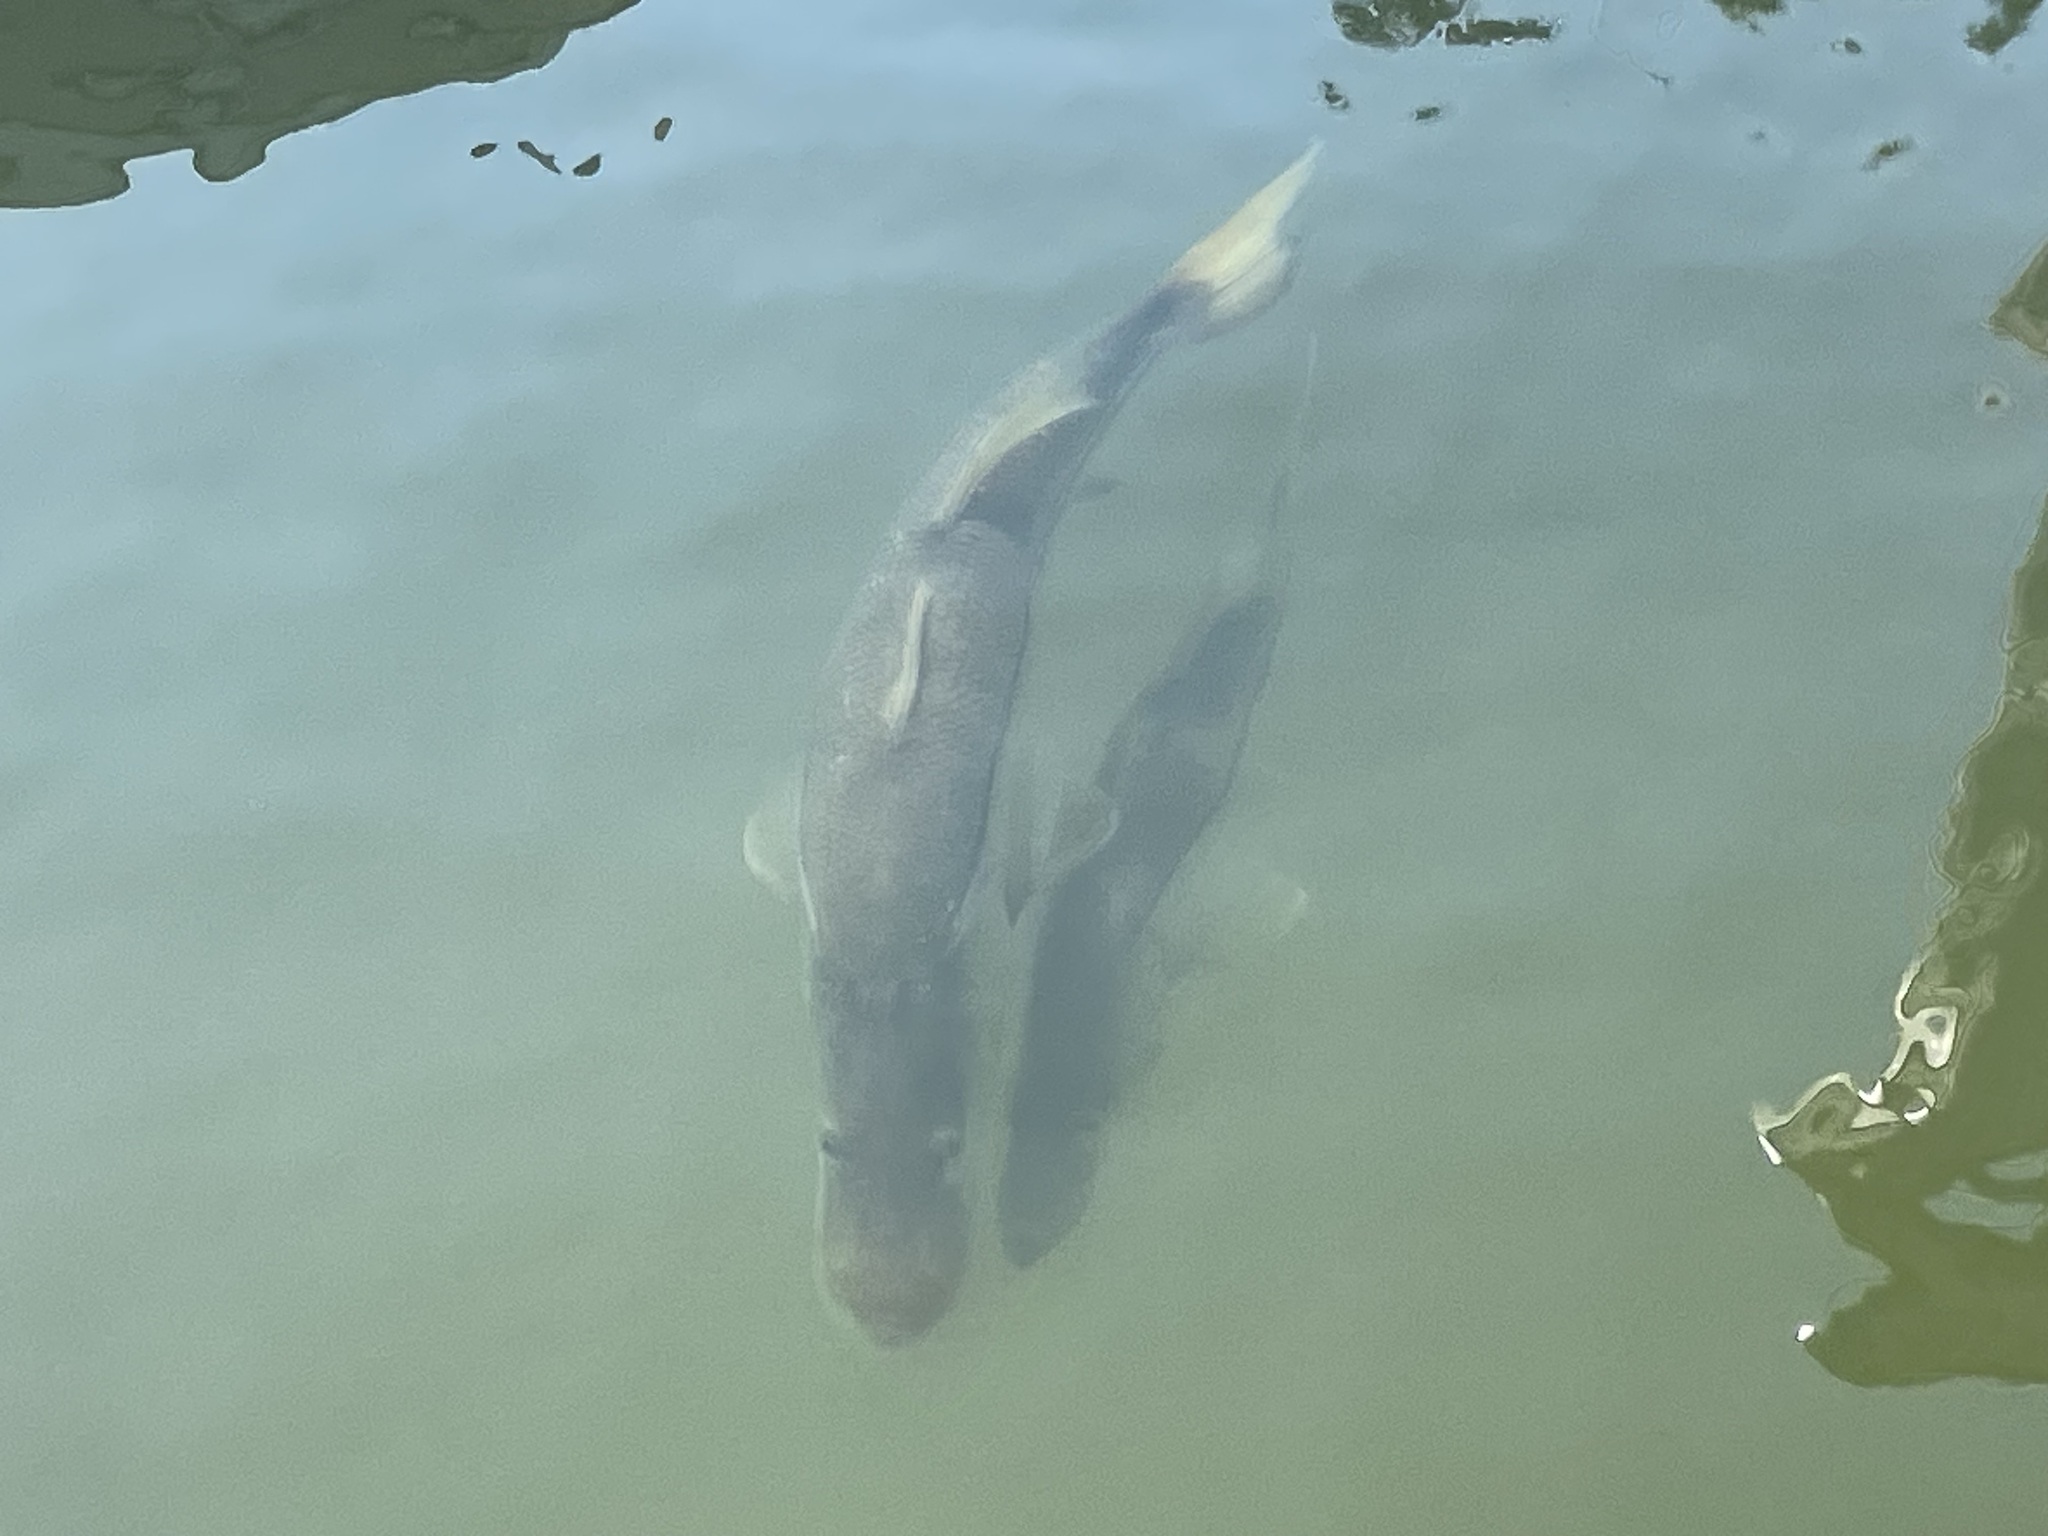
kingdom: Animalia
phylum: Chordata
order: Perciformes
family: Centropomidae
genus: Centropomus
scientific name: Centropomus undecimalis
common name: Snook
